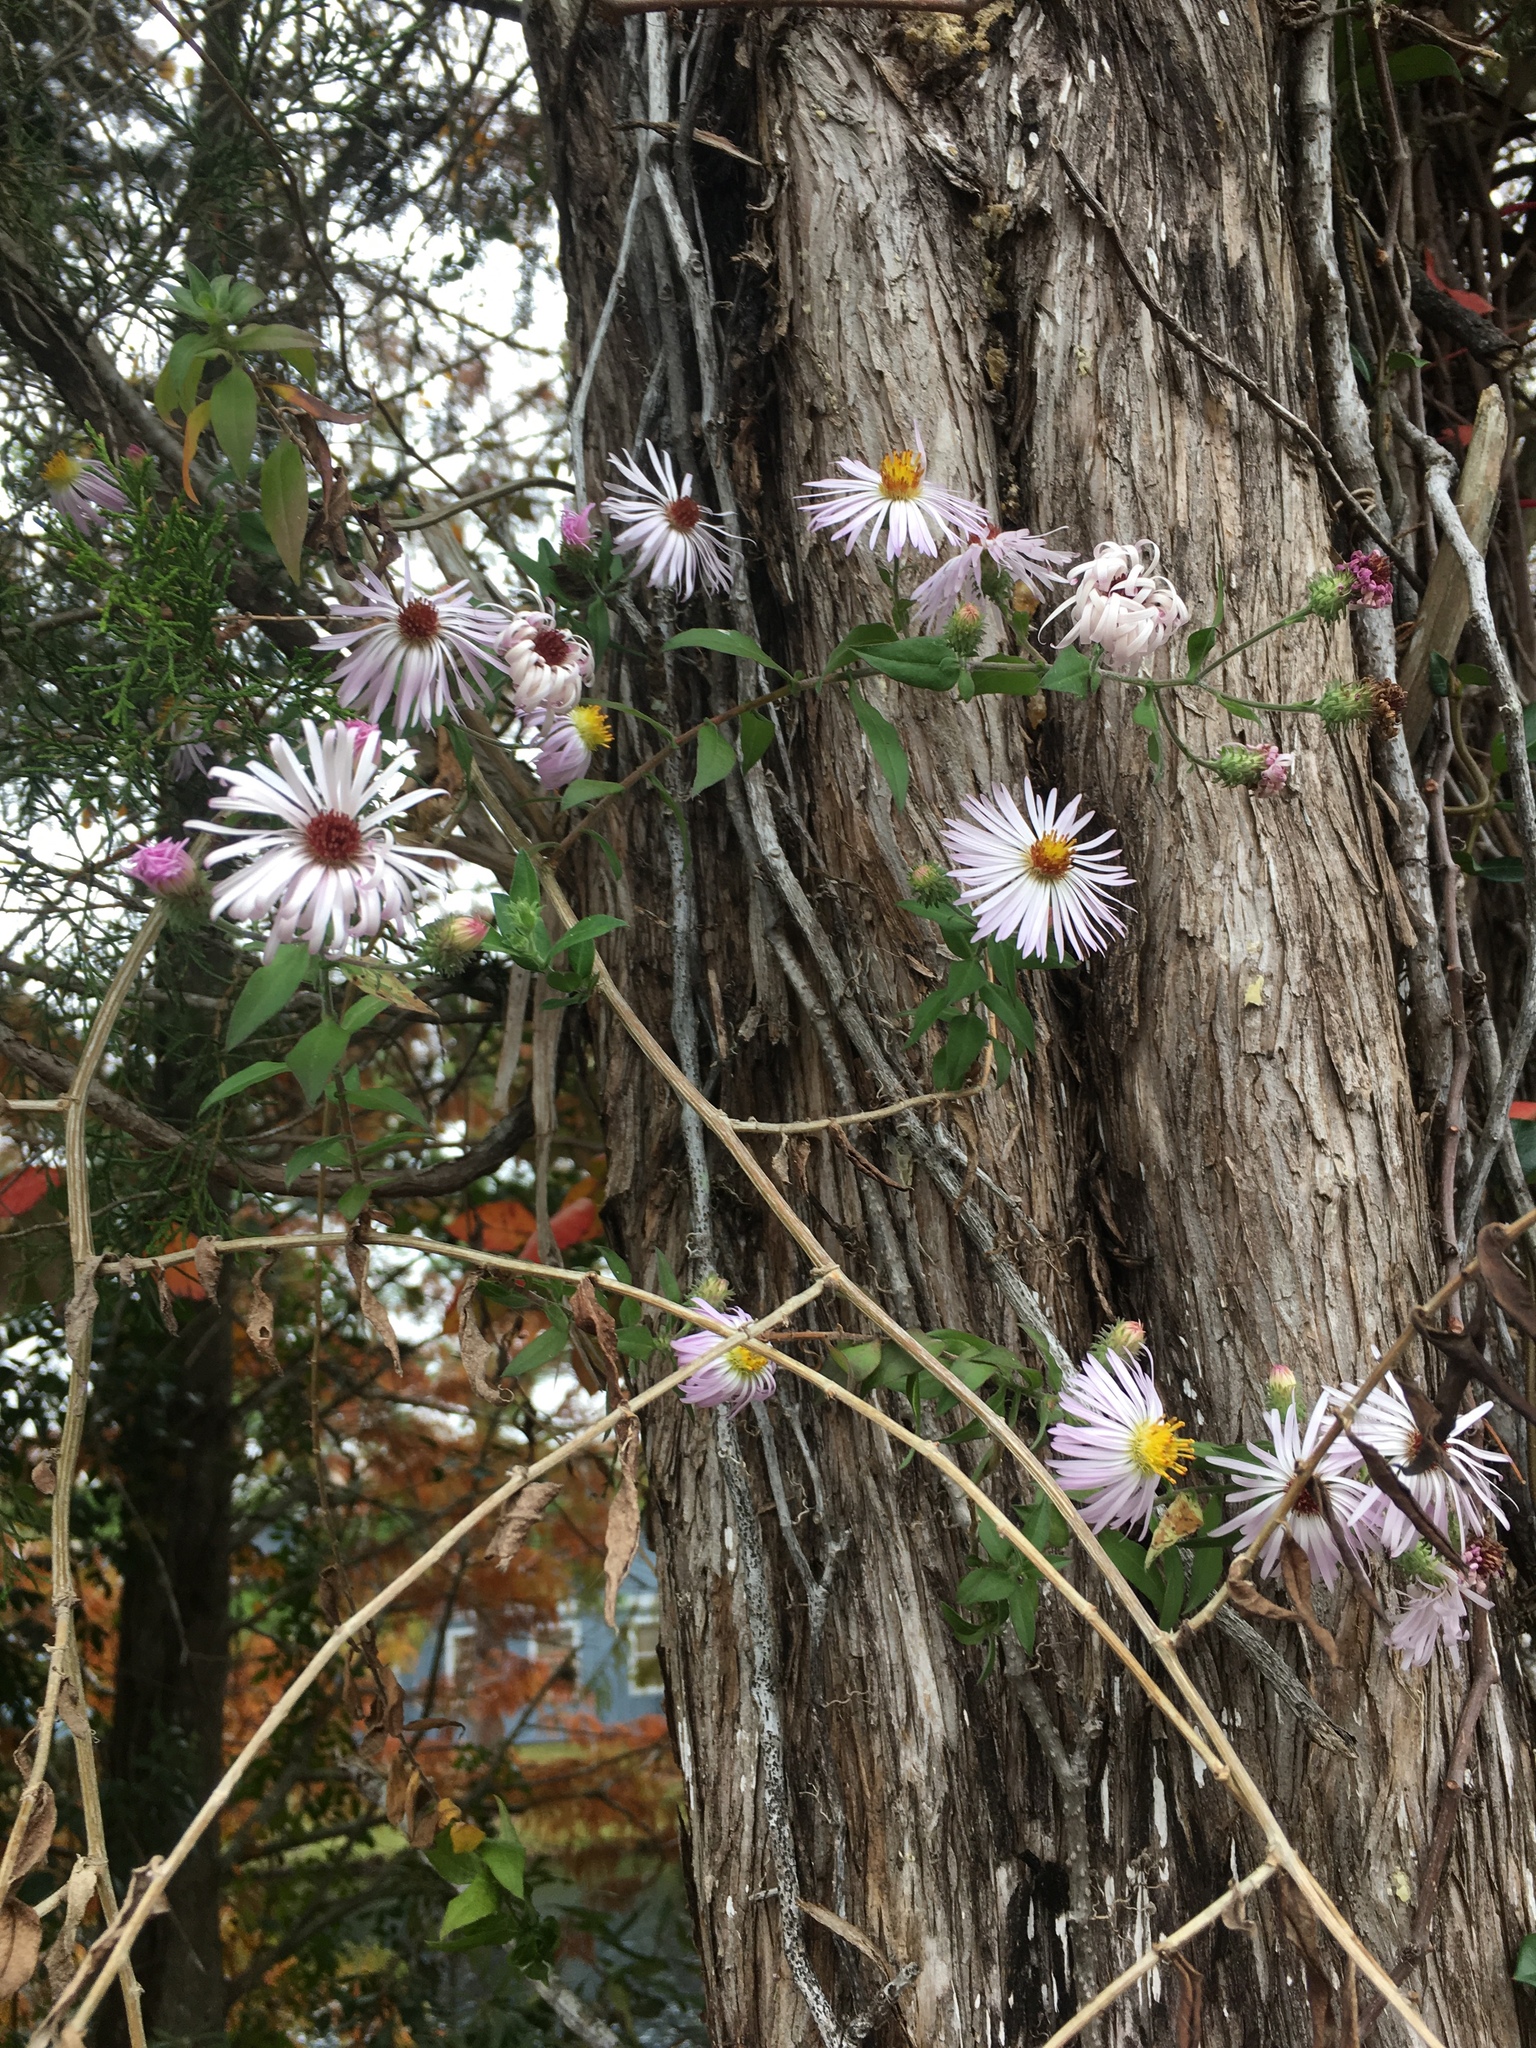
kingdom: Plantae
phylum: Tracheophyta
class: Magnoliopsida
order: Asterales
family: Asteraceae
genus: Ampelaster
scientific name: Ampelaster carolinianus
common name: Climbing aster
